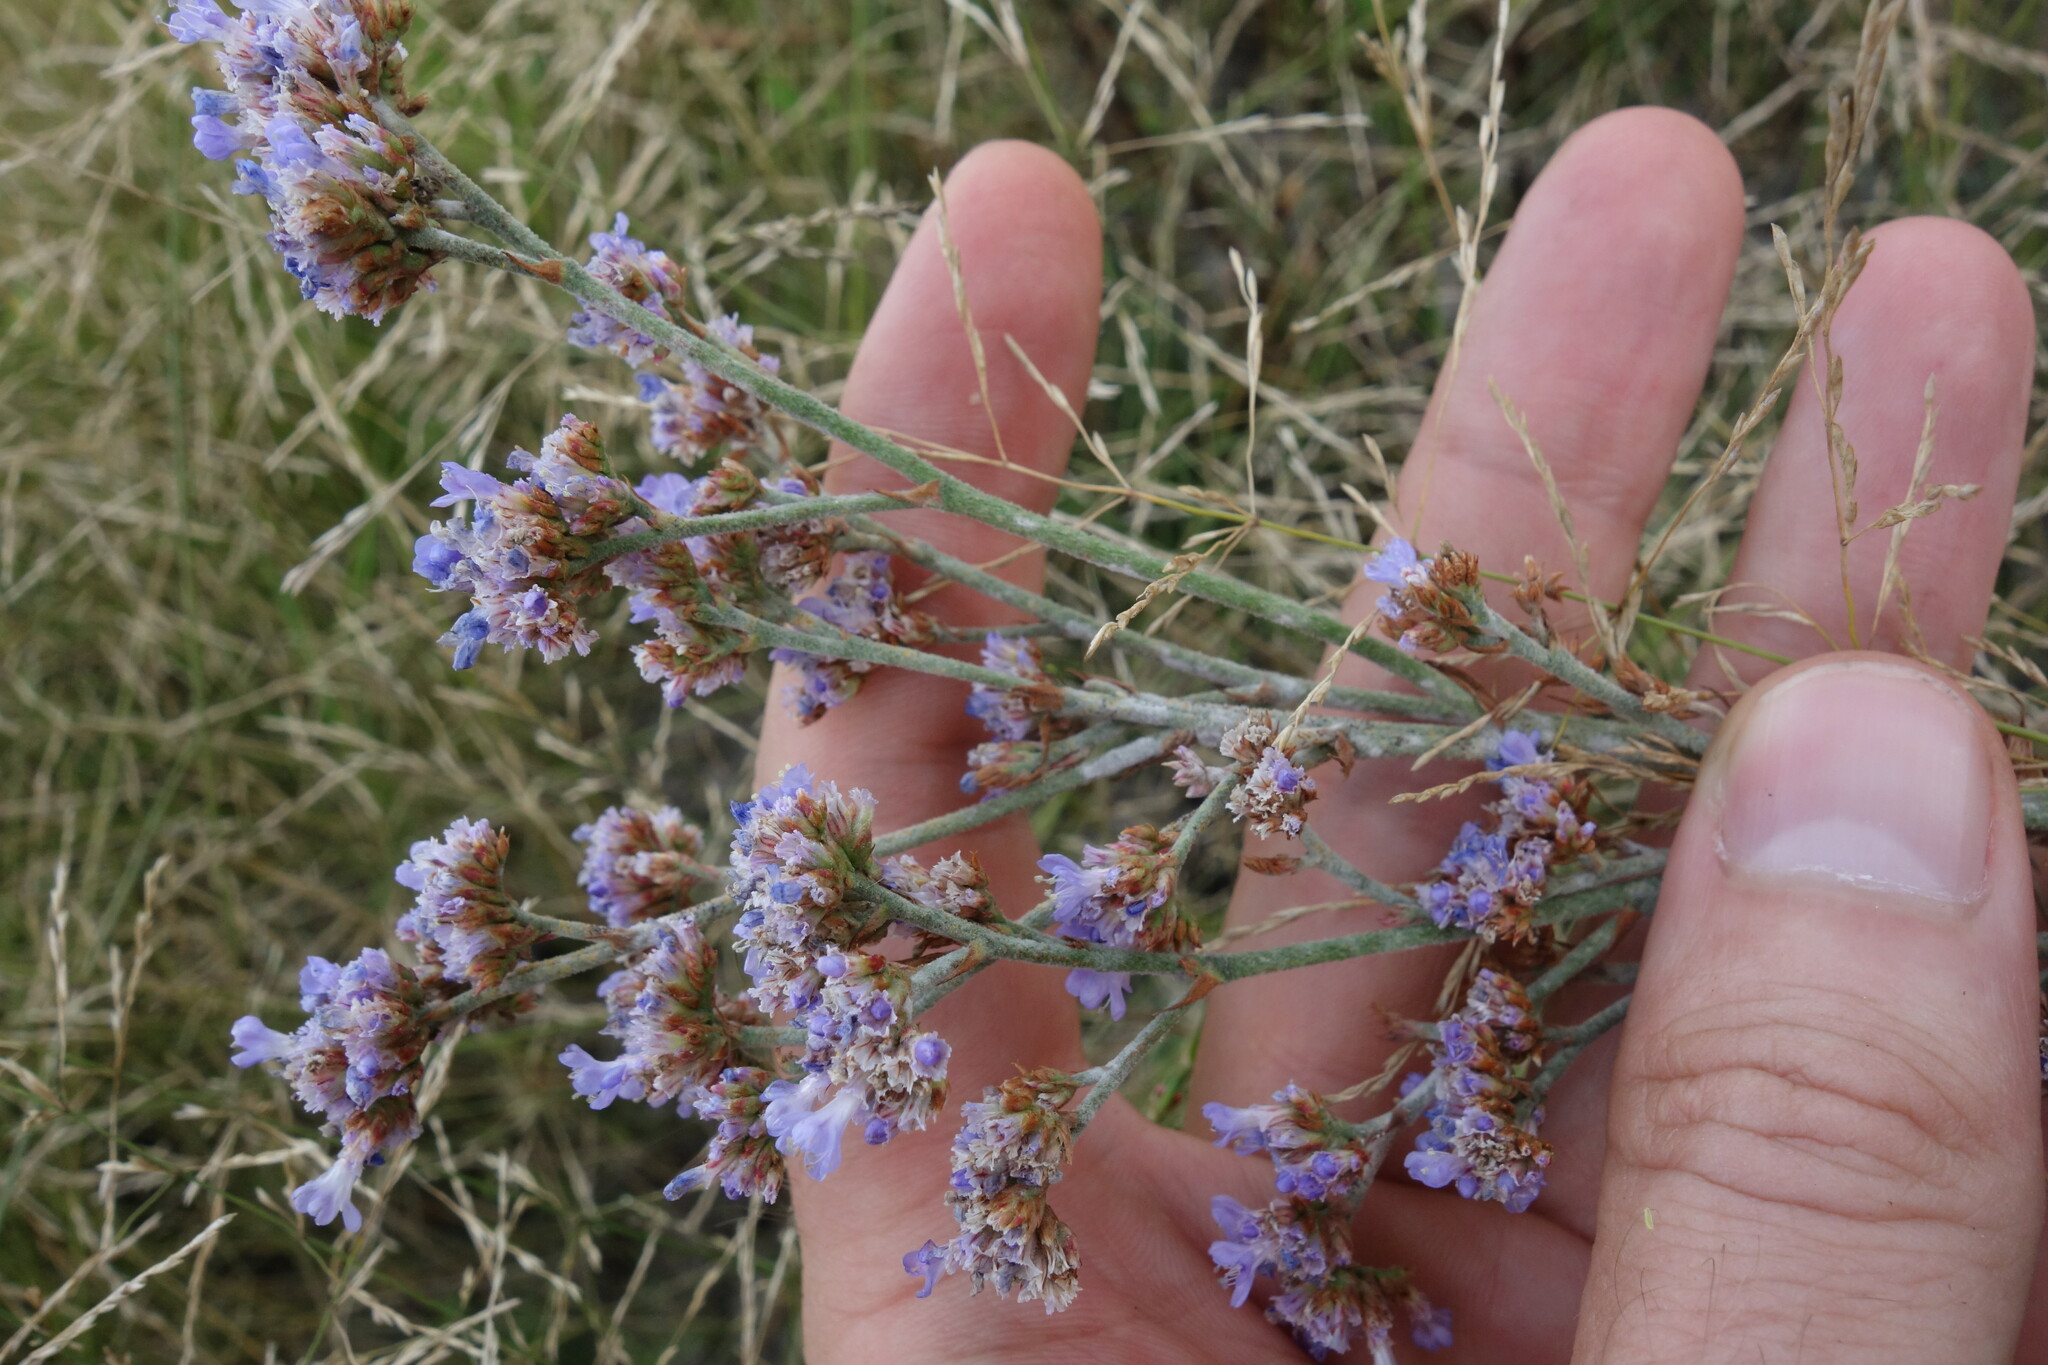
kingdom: Plantae
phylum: Tracheophyta
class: Magnoliopsida
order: Caryophyllales
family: Plumbaginaceae
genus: Limonium
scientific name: Limonium tomentellum
